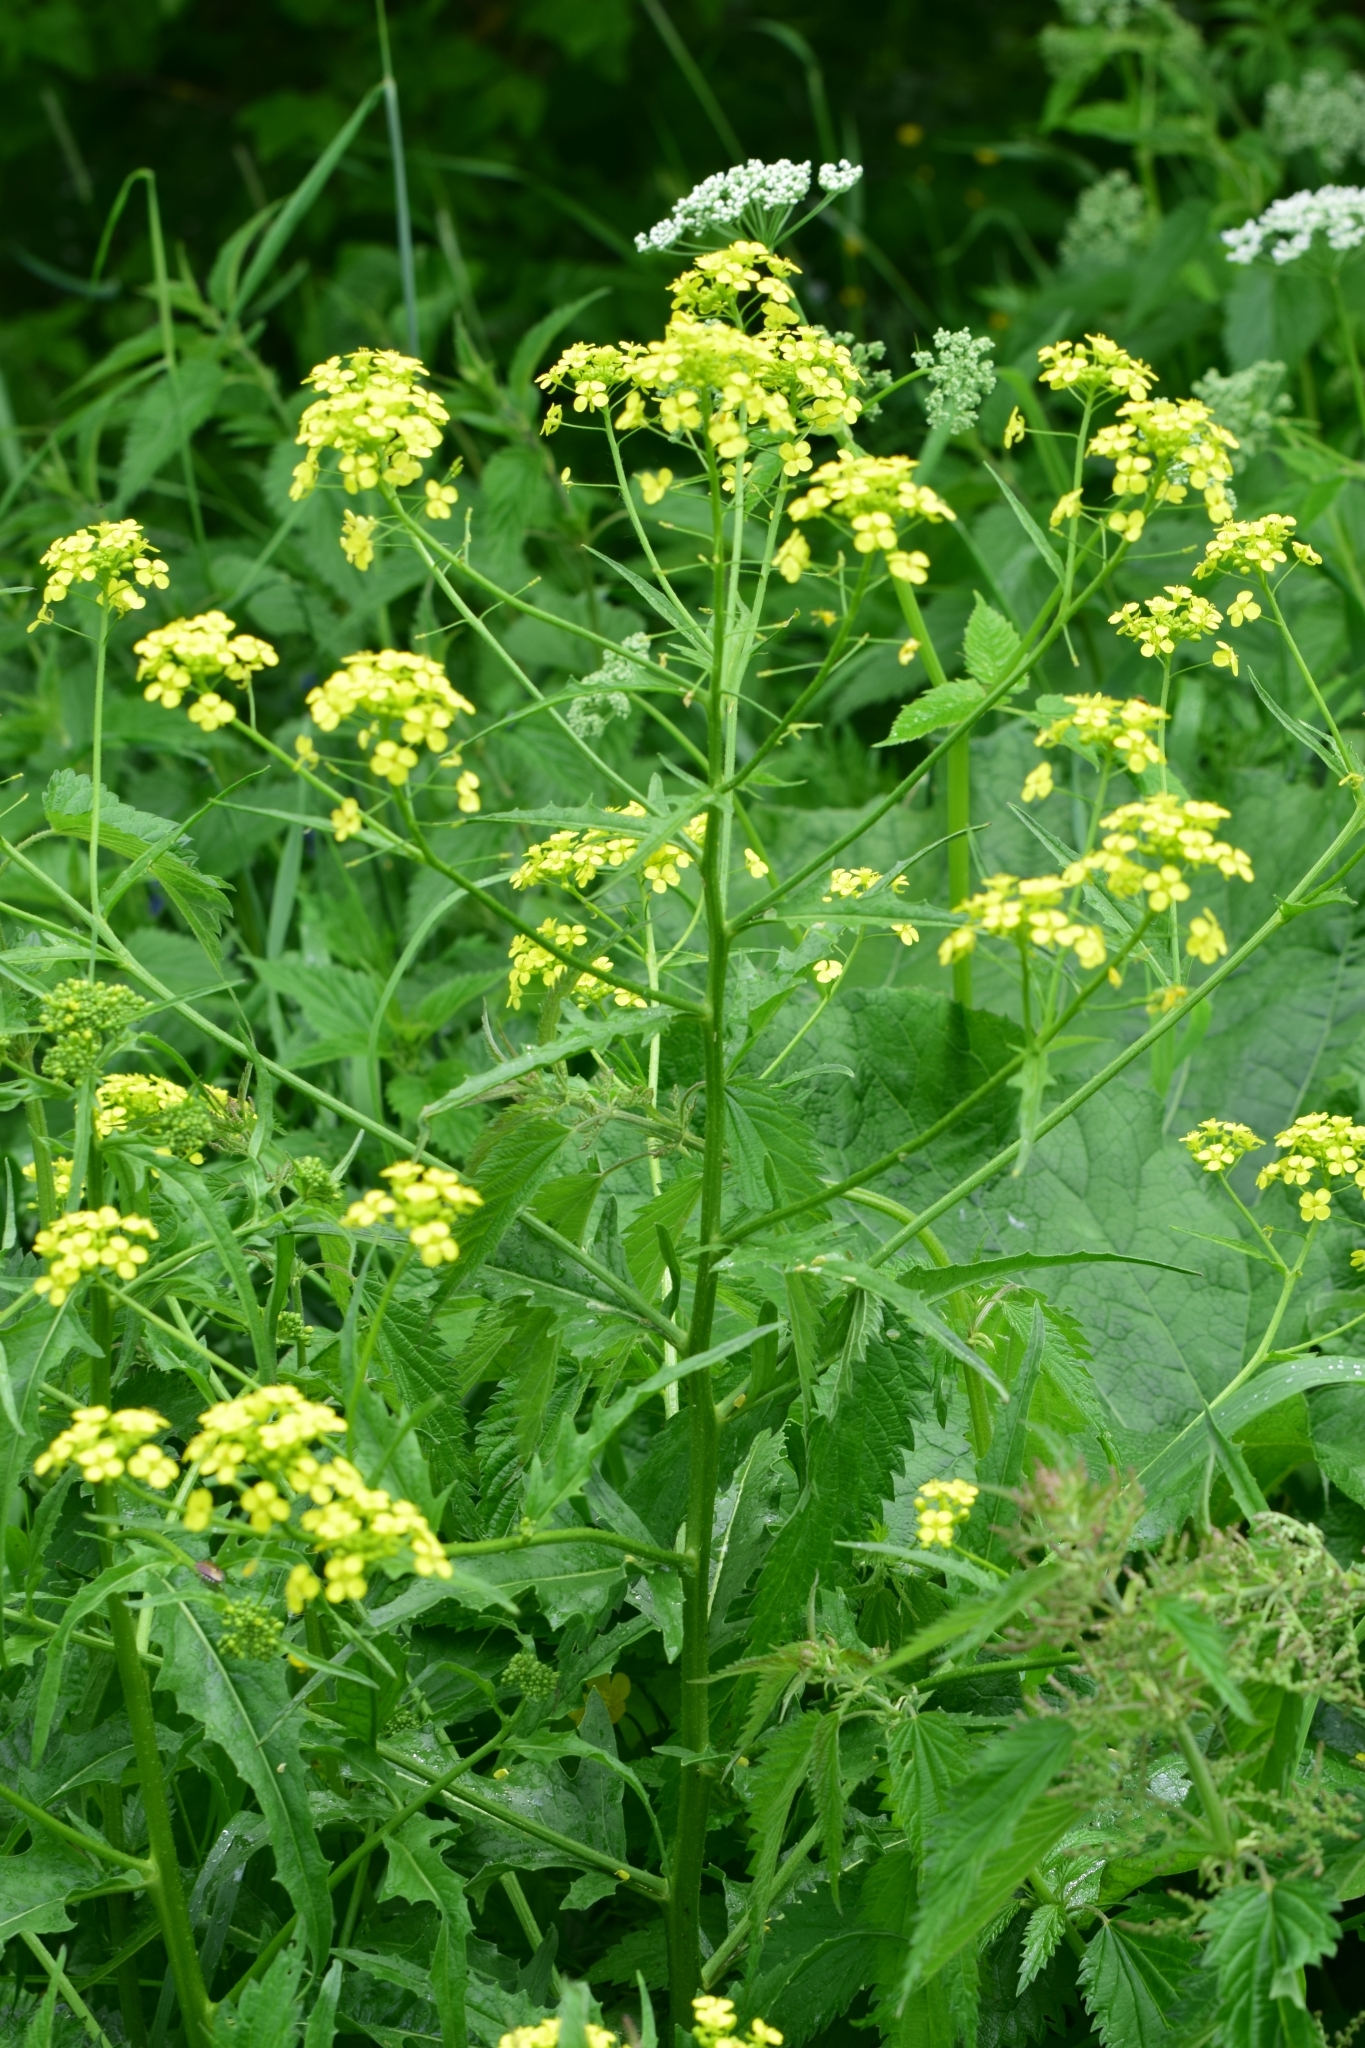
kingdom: Plantae
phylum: Tracheophyta
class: Magnoliopsida
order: Brassicales
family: Brassicaceae
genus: Bunias
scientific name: Bunias orientalis
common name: Warty-cabbage
